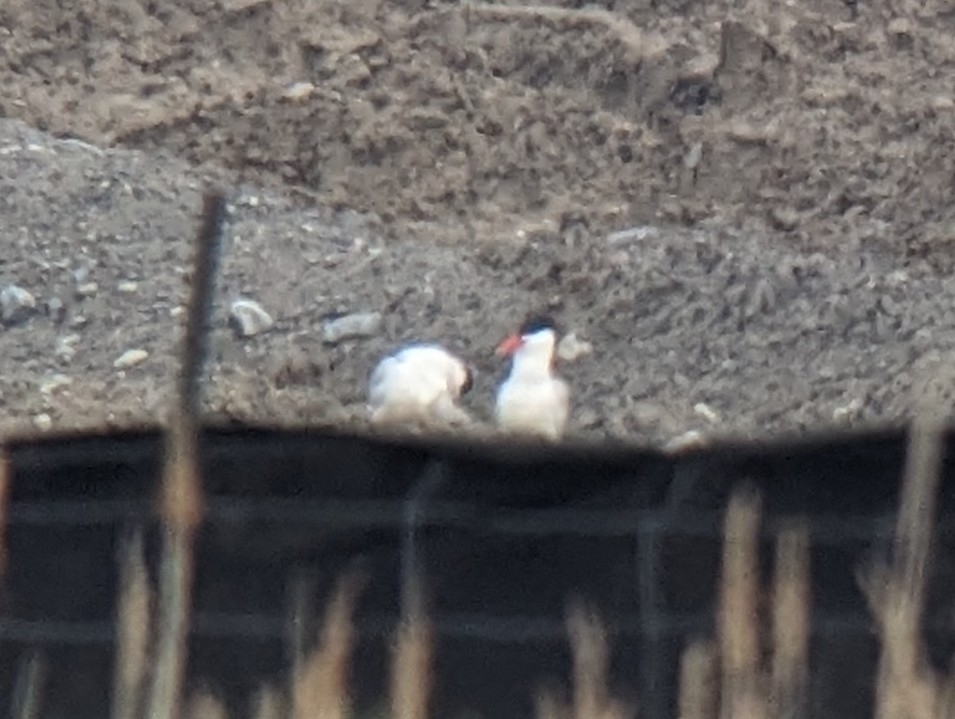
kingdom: Animalia
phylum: Chordata
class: Aves
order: Charadriiformes
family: Laridae
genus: Hydroprogne
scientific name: Hydroprogne caspia
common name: Caspian tern
